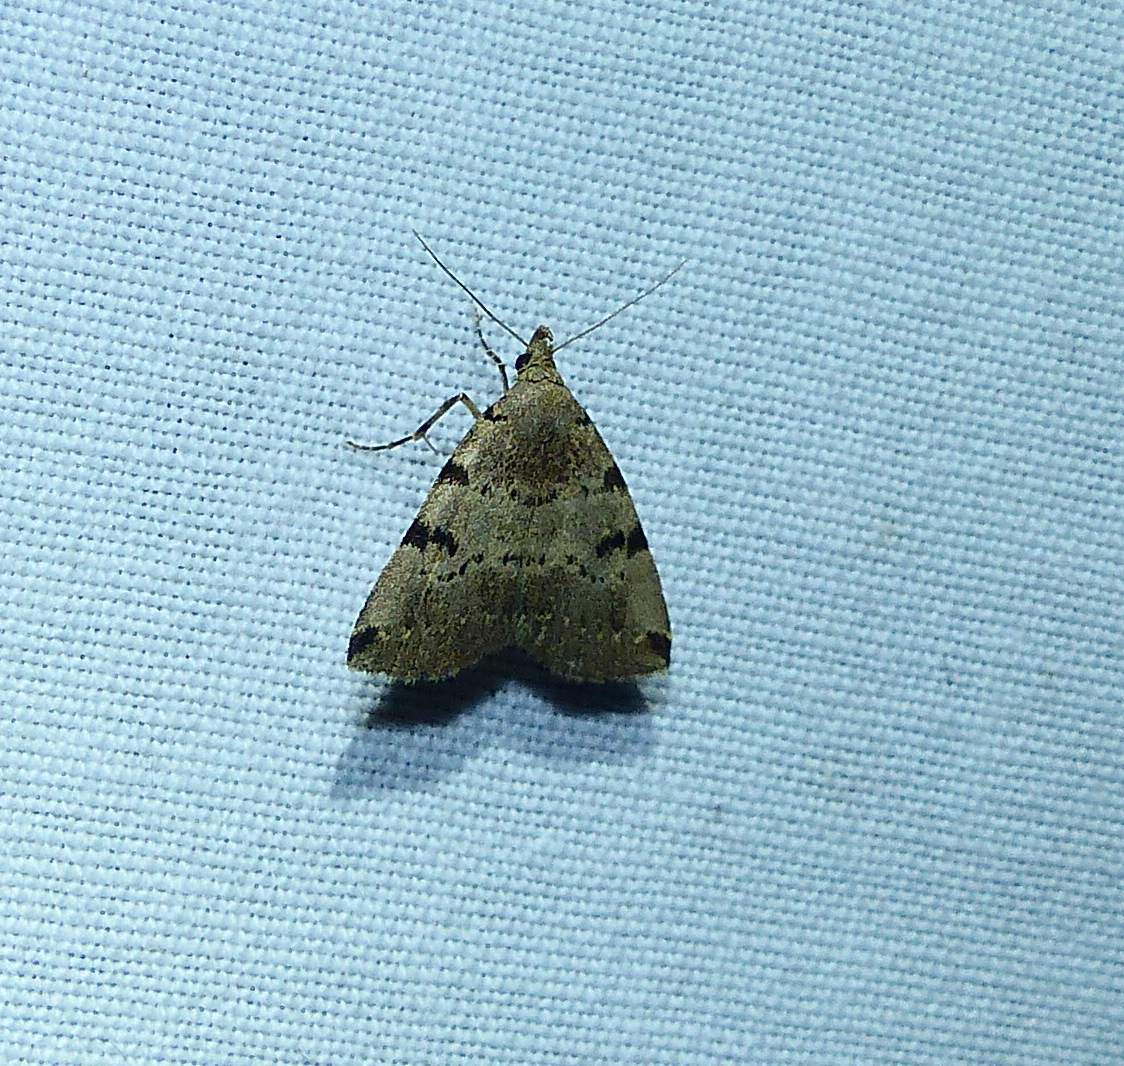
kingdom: Animalia
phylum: Arthropoda
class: Insecta
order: Lepidoptera
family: Erebidae
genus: Zanclognatha
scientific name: Zanclognatha lituralis
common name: Lettered fan-foot
